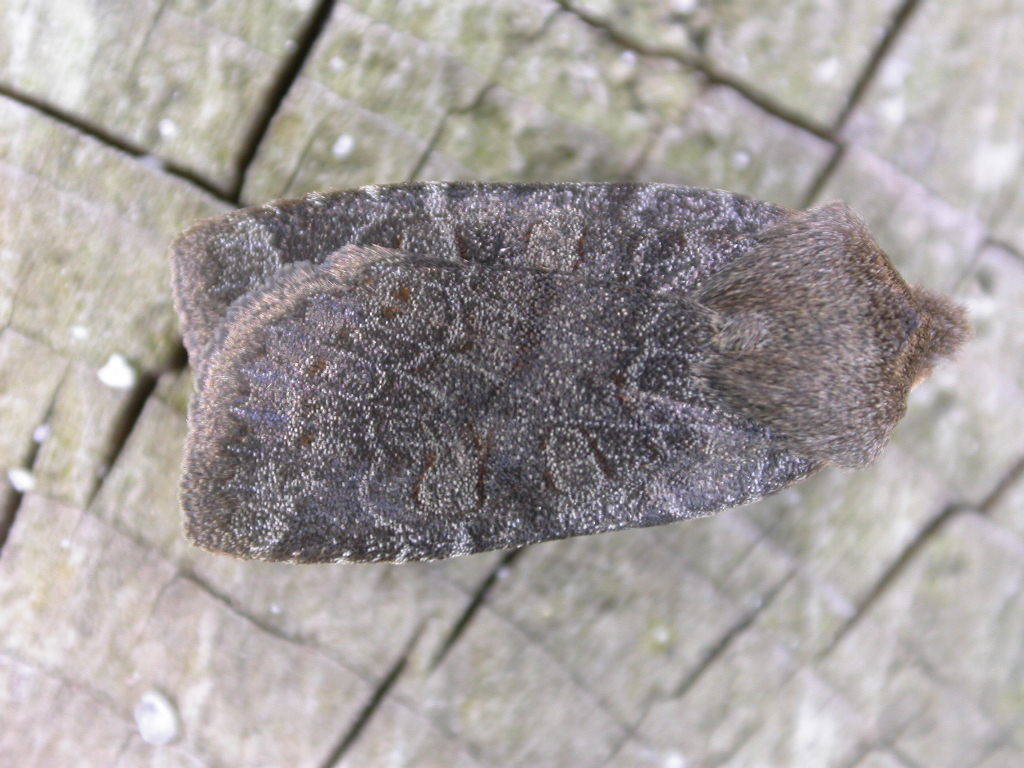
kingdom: Animalia
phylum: Arthropoda
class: Insecta
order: Lepidoptera
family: Noctuidae
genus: Conistra
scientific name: Conistra vaccinii
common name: Chestnut
